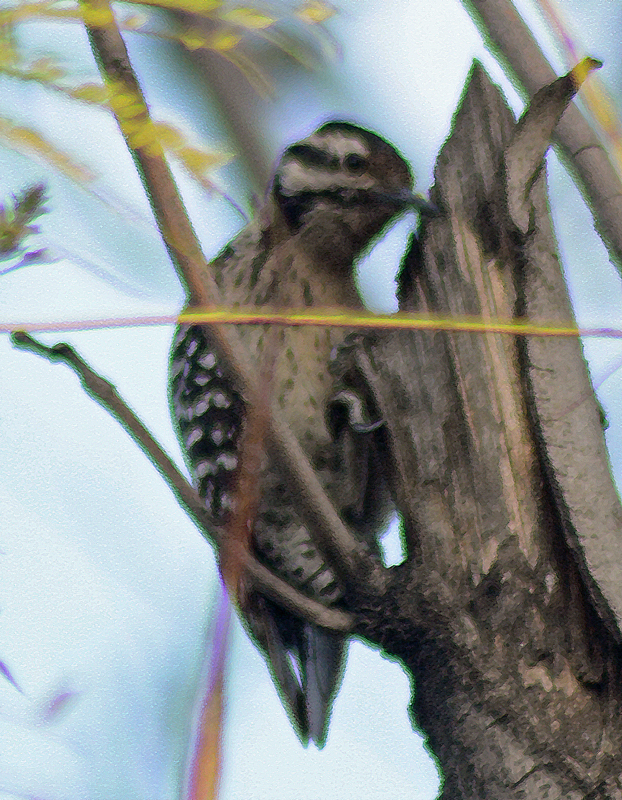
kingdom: Animalia
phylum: Chordata
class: Aves
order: Piciformes
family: Picidae
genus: Dryobates
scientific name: Dryobates scalaris
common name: Ladder-backed woodpecker
